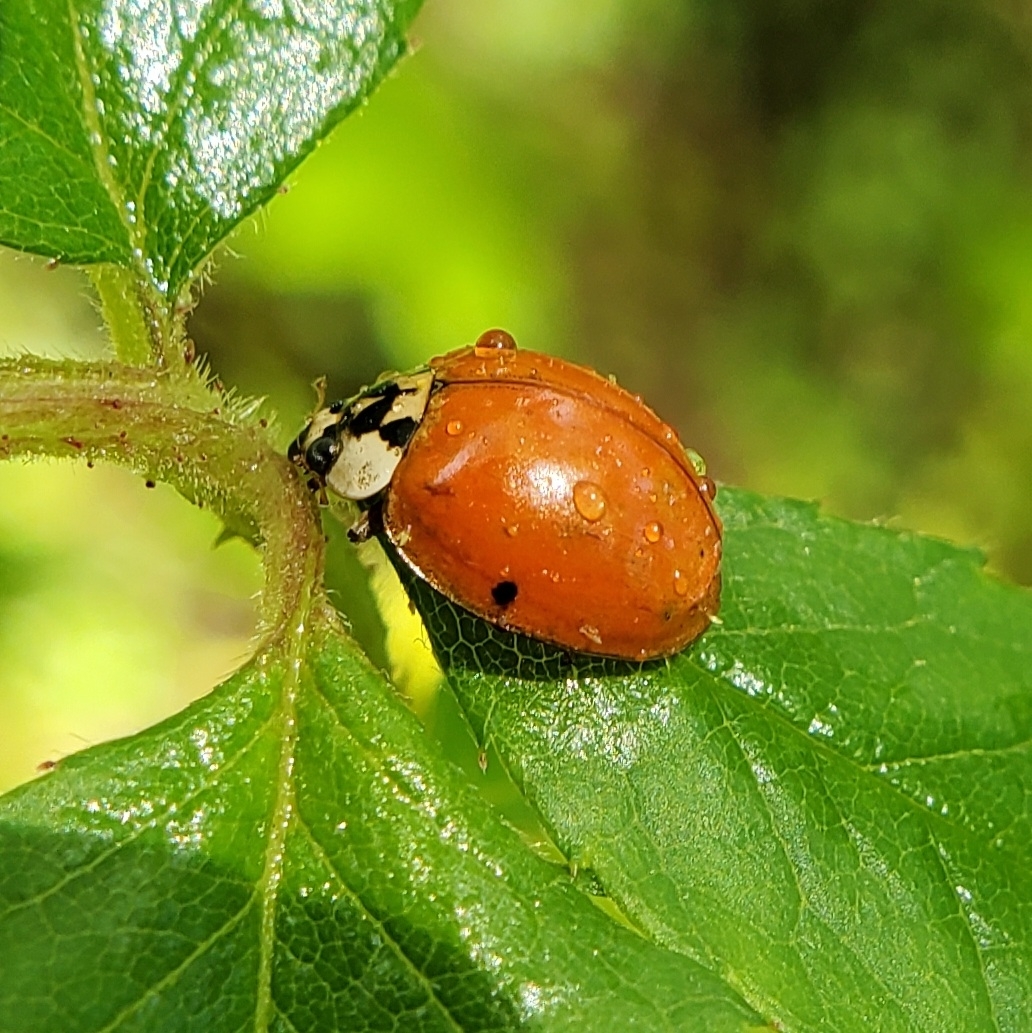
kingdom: Animalia
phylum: Arthropoda
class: Insecta
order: Coleoptera
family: Coccinellidae
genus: Harmonia
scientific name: Harmonia axyridis
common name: Harlequin ladybird
